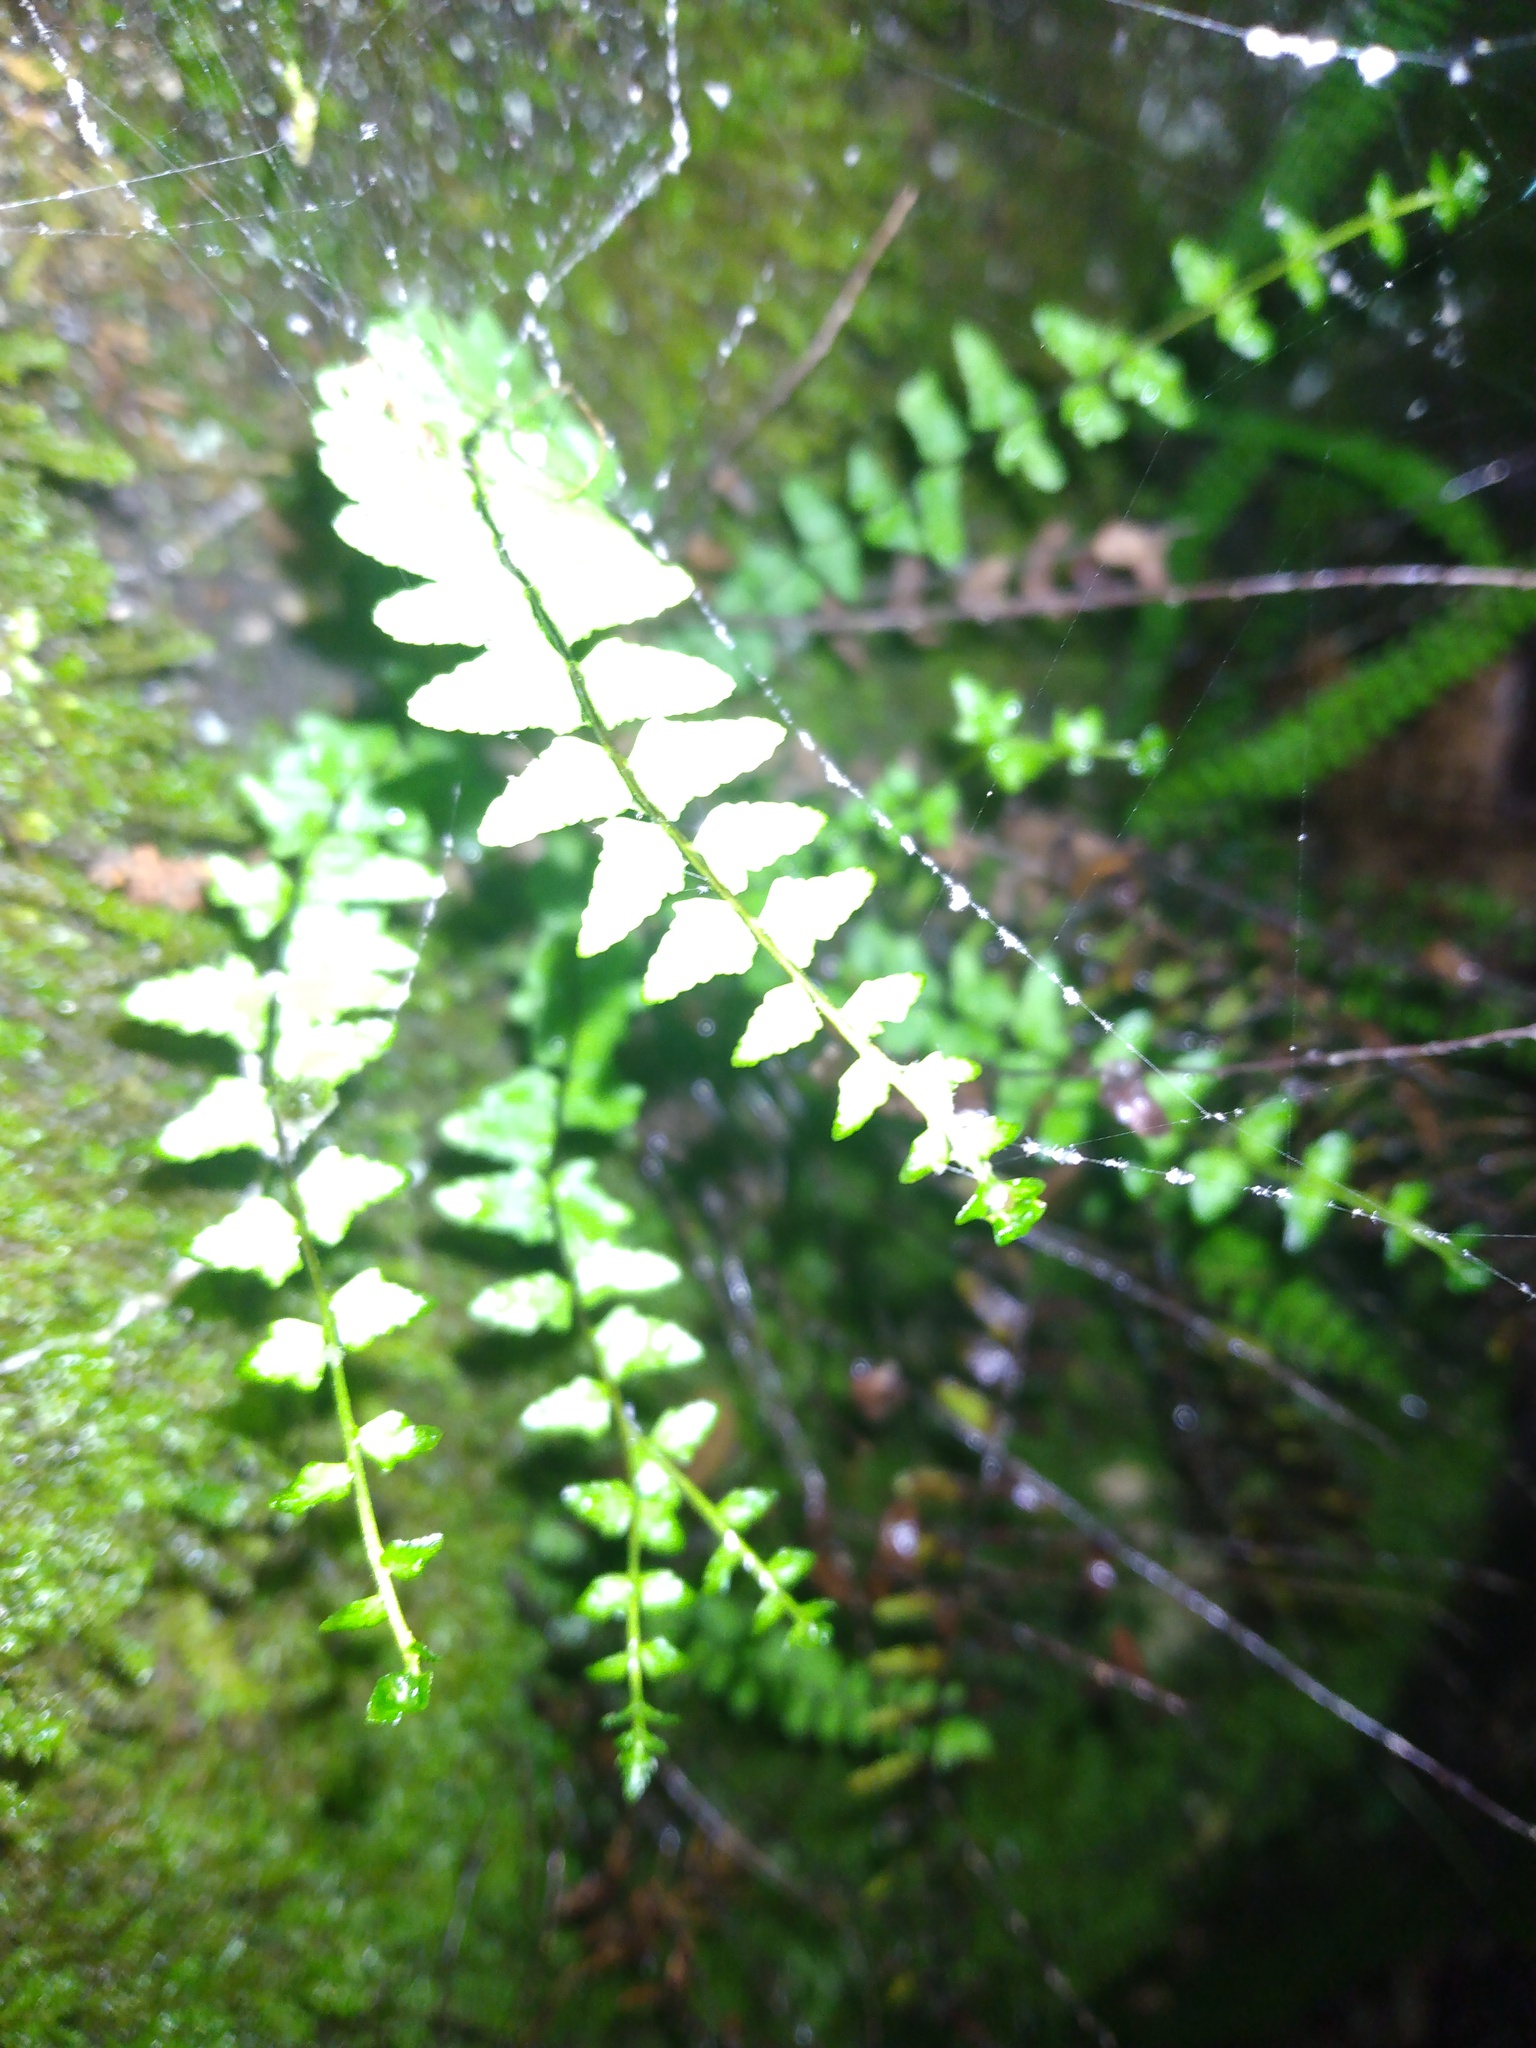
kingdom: Plantae
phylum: Tracheophyta
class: Polypodiopsida
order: Polypodiales
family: Aspleniaceae
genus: Asplenium
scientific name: Asplenium platyneuron
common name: Ebony spleenwort
